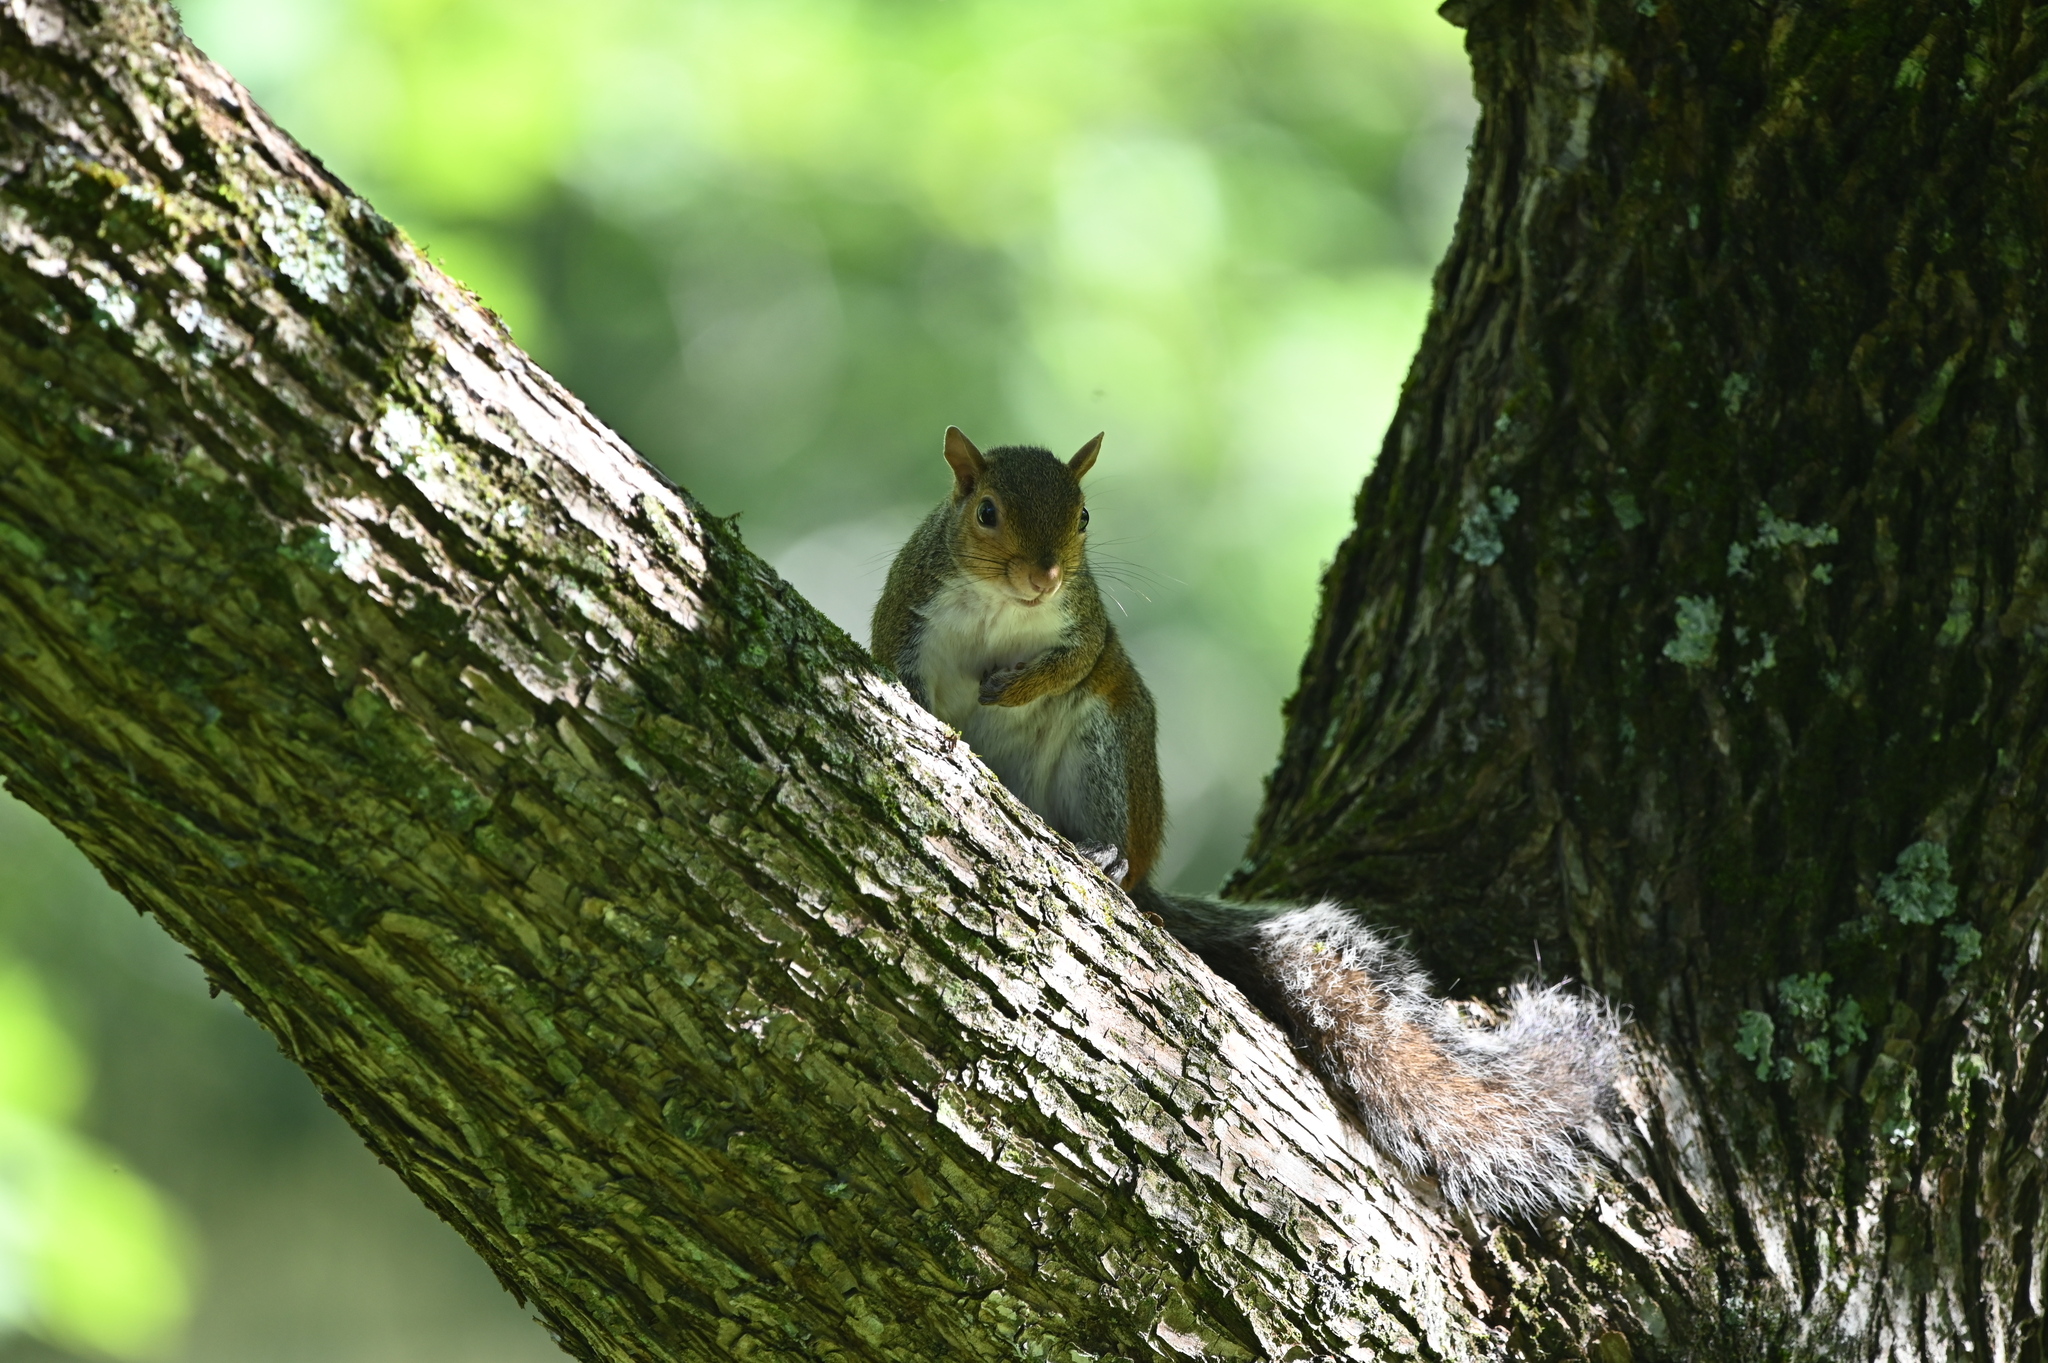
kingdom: Animalia
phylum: Chordata
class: Mammalia
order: Rodentia
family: Sciuridae
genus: Sciurus
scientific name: Sciurus carolinensis
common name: Eastern gray squirrel
